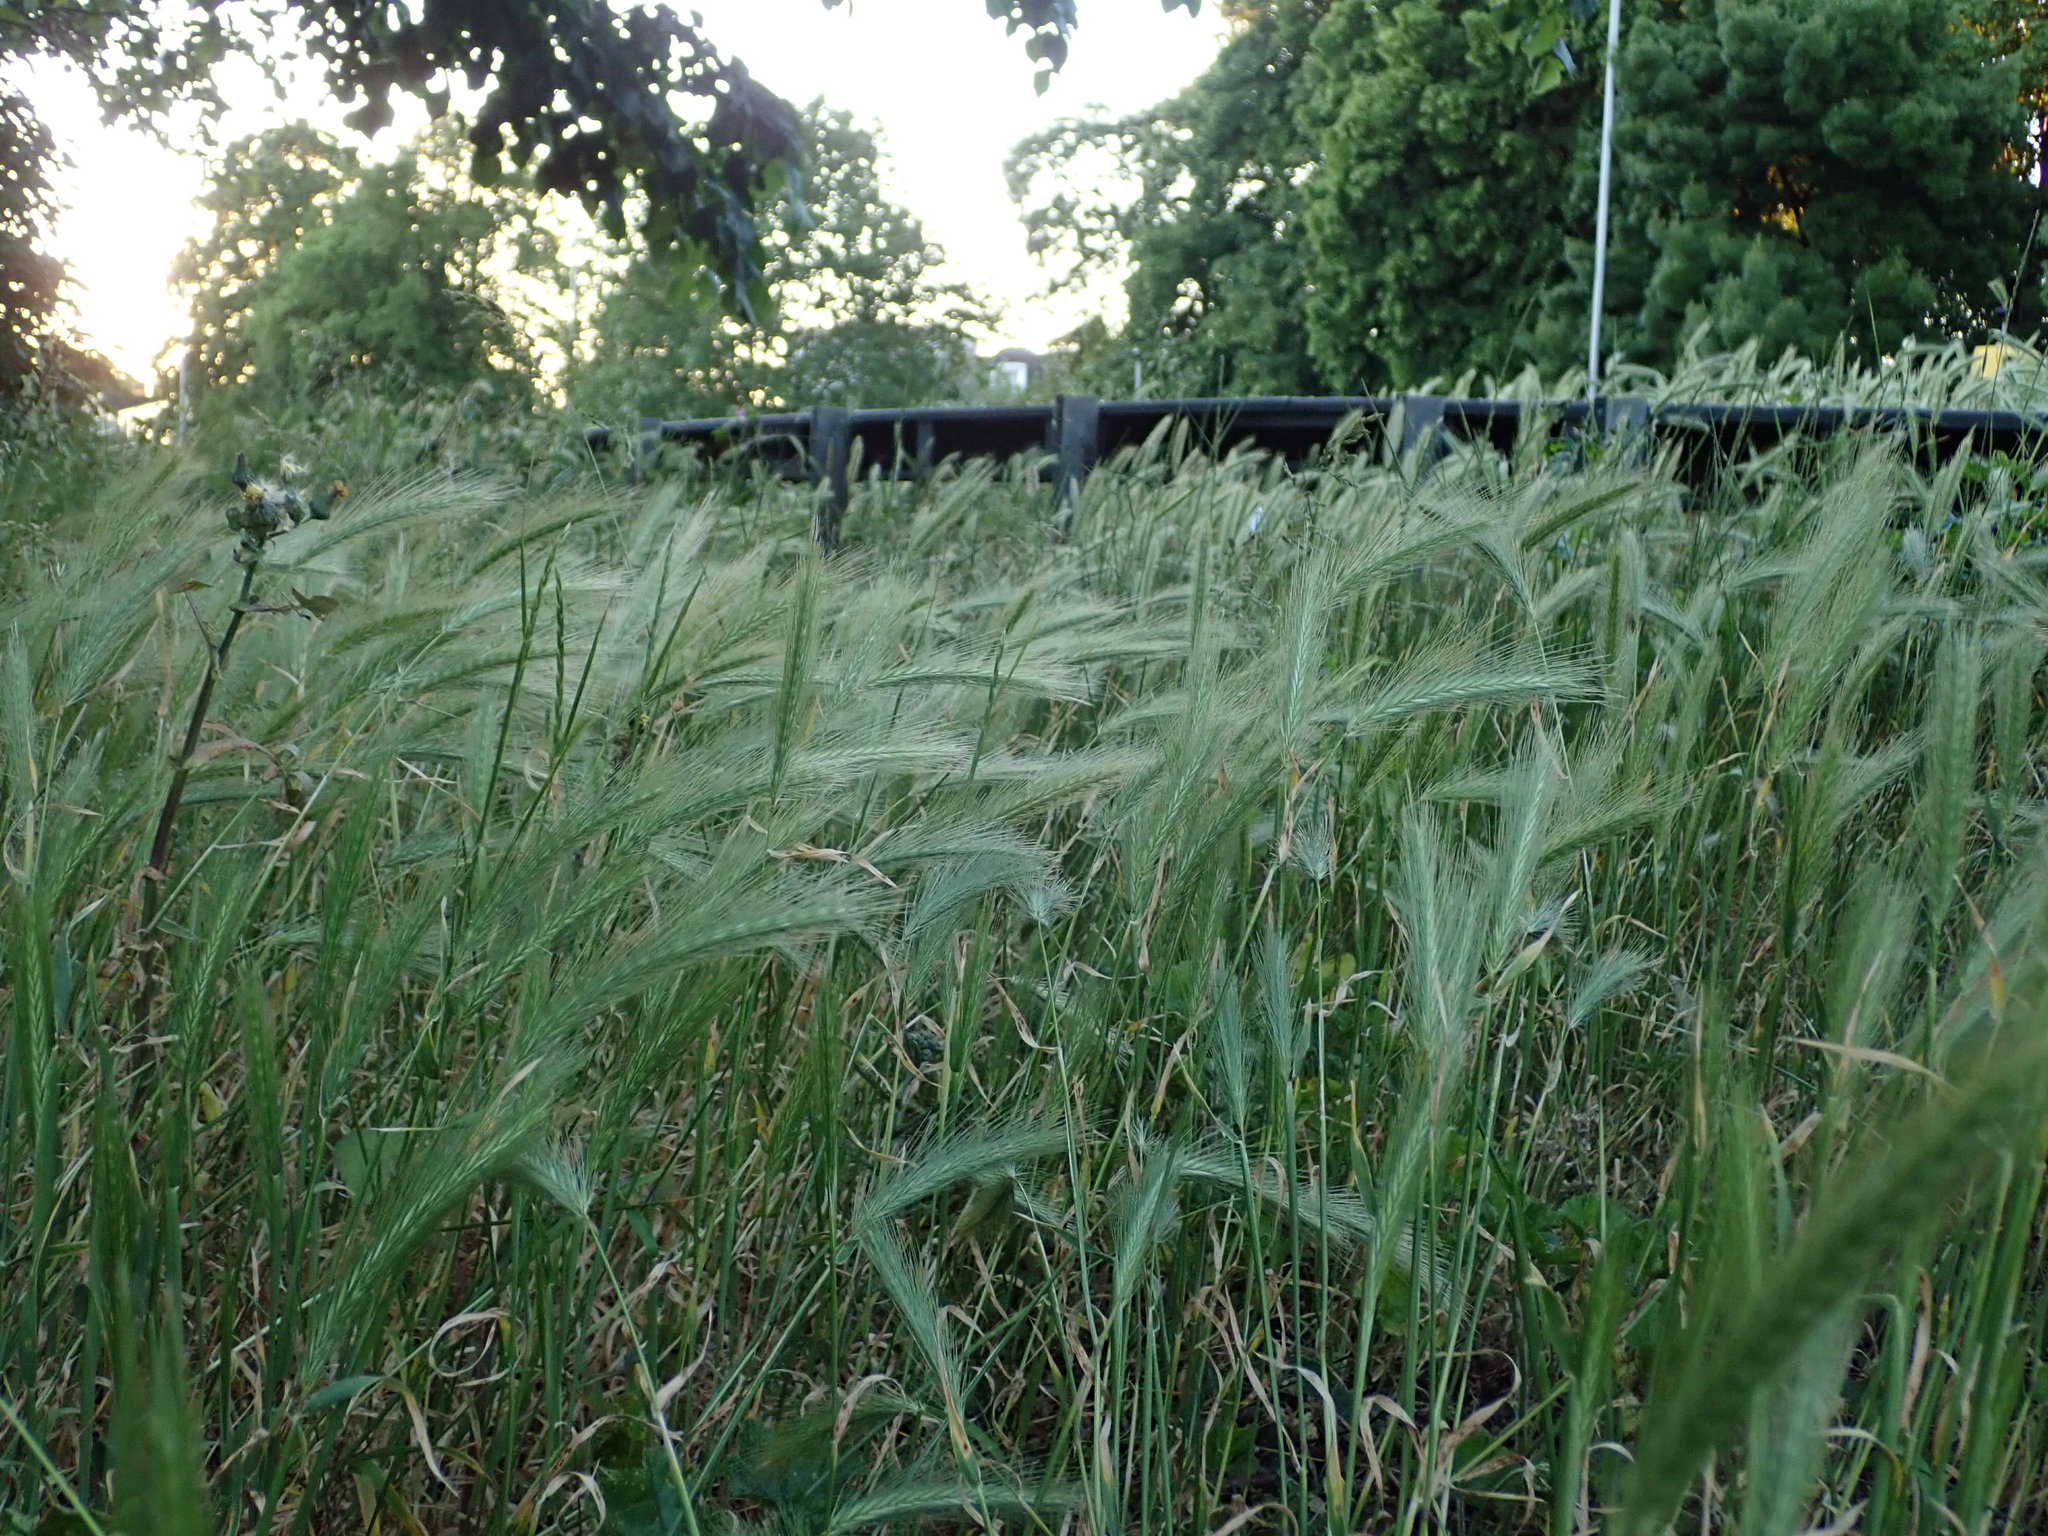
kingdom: Plantae
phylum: Tracheophyta
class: Liliopsida
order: Poales
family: Poaceae
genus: Hordeum
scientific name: Hordeum murinum
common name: Wall barley
